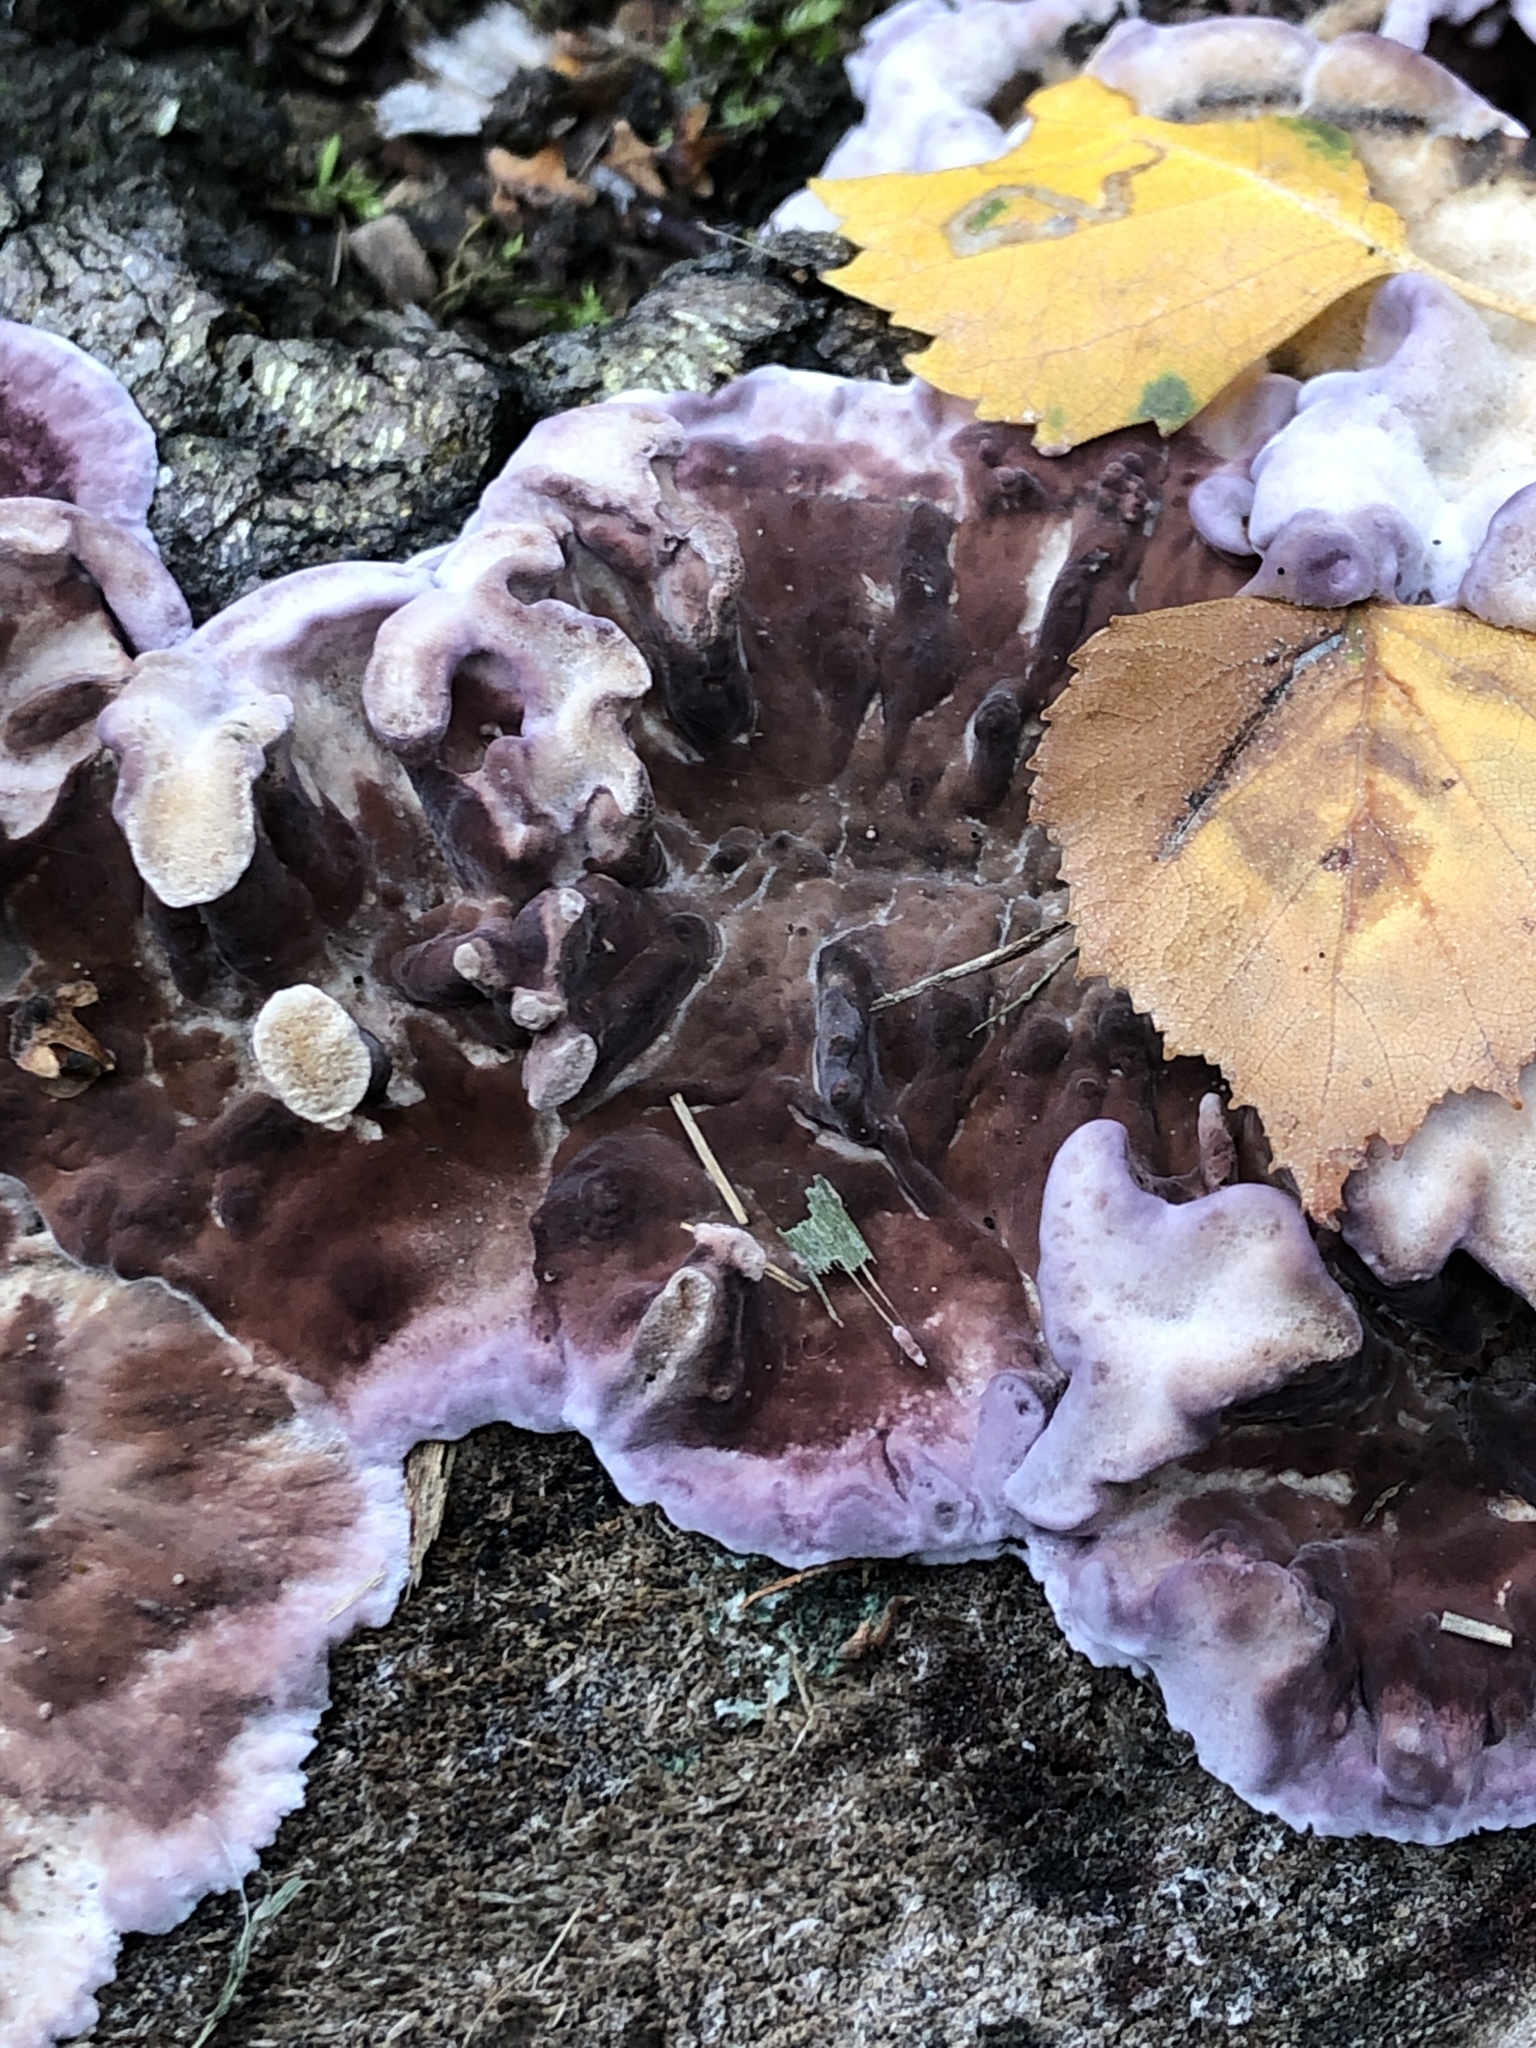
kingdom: Fungi
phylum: Basidiomycota
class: Agaricomycetes
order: Agaricales
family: Cyphellaceae
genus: Chondrostereum
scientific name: Chondrostereum purpureum
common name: Silver leaf disease
